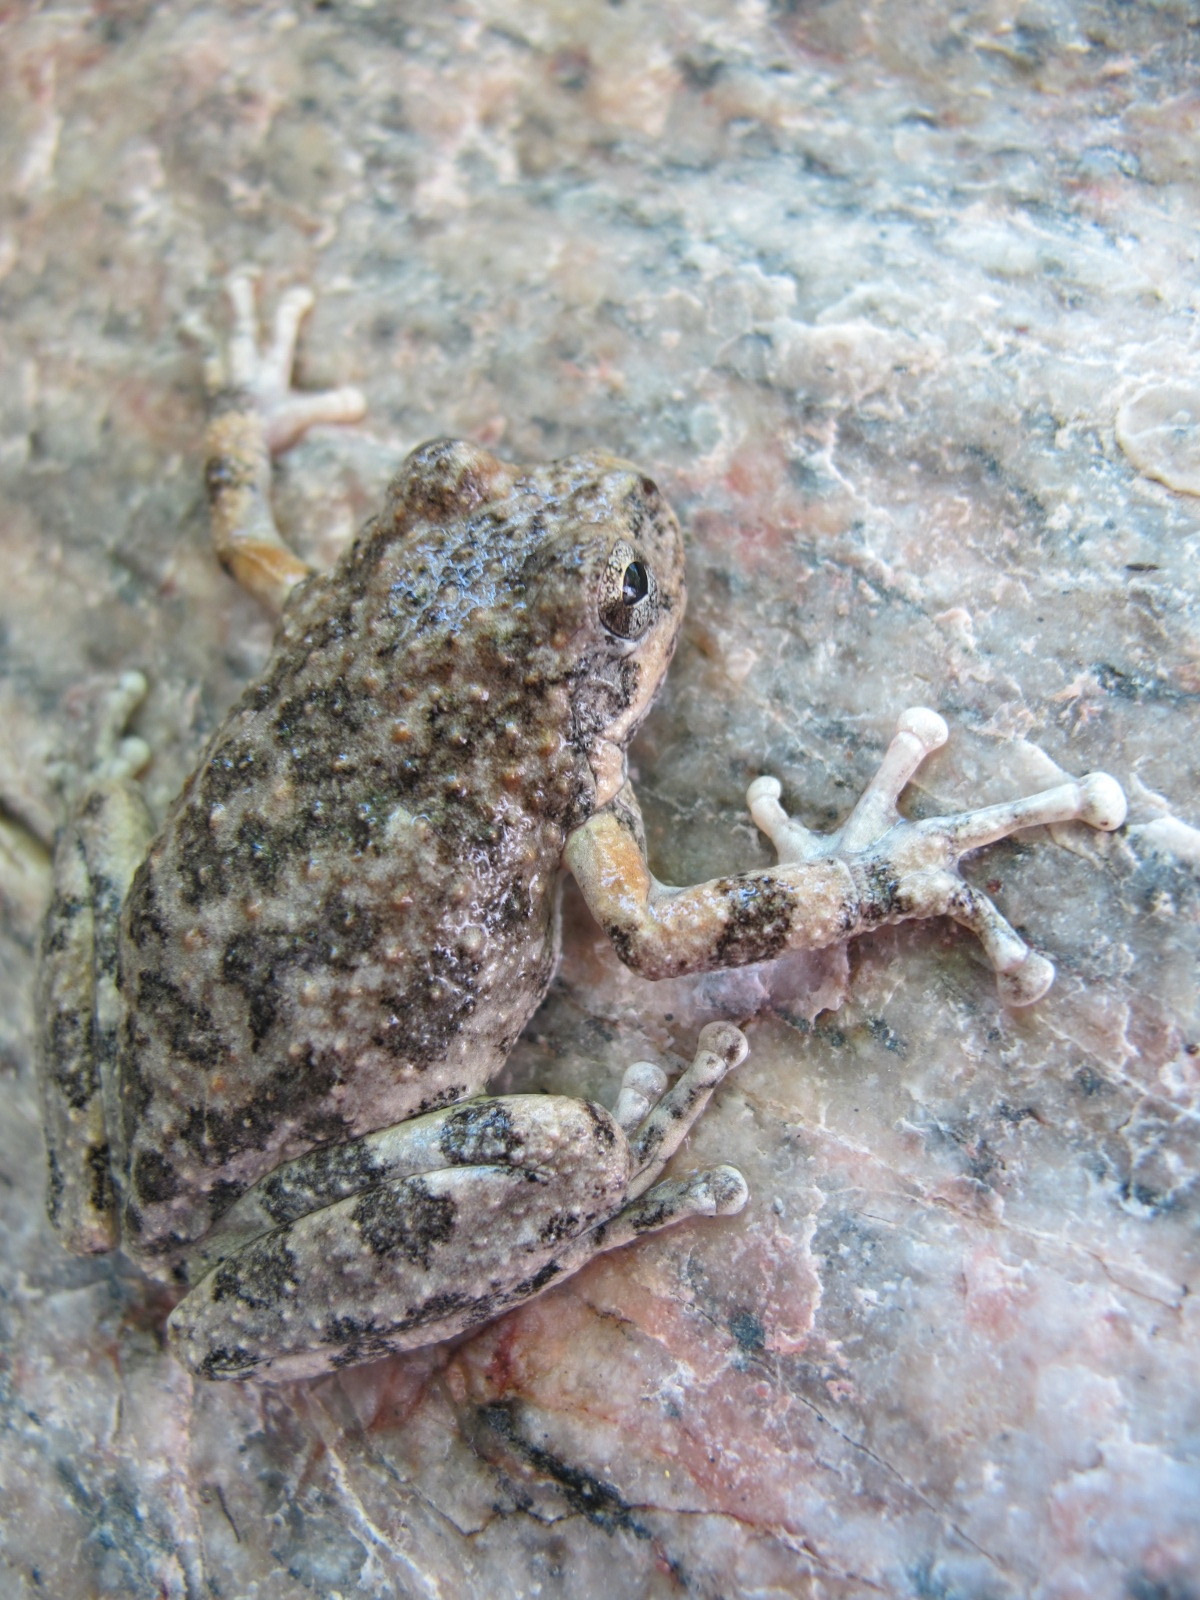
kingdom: Animalia
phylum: Chordata
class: Amphibia
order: Anura
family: Hylidae
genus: Pseudacris
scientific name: Pseudacris cadaverina
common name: California chorus frog
